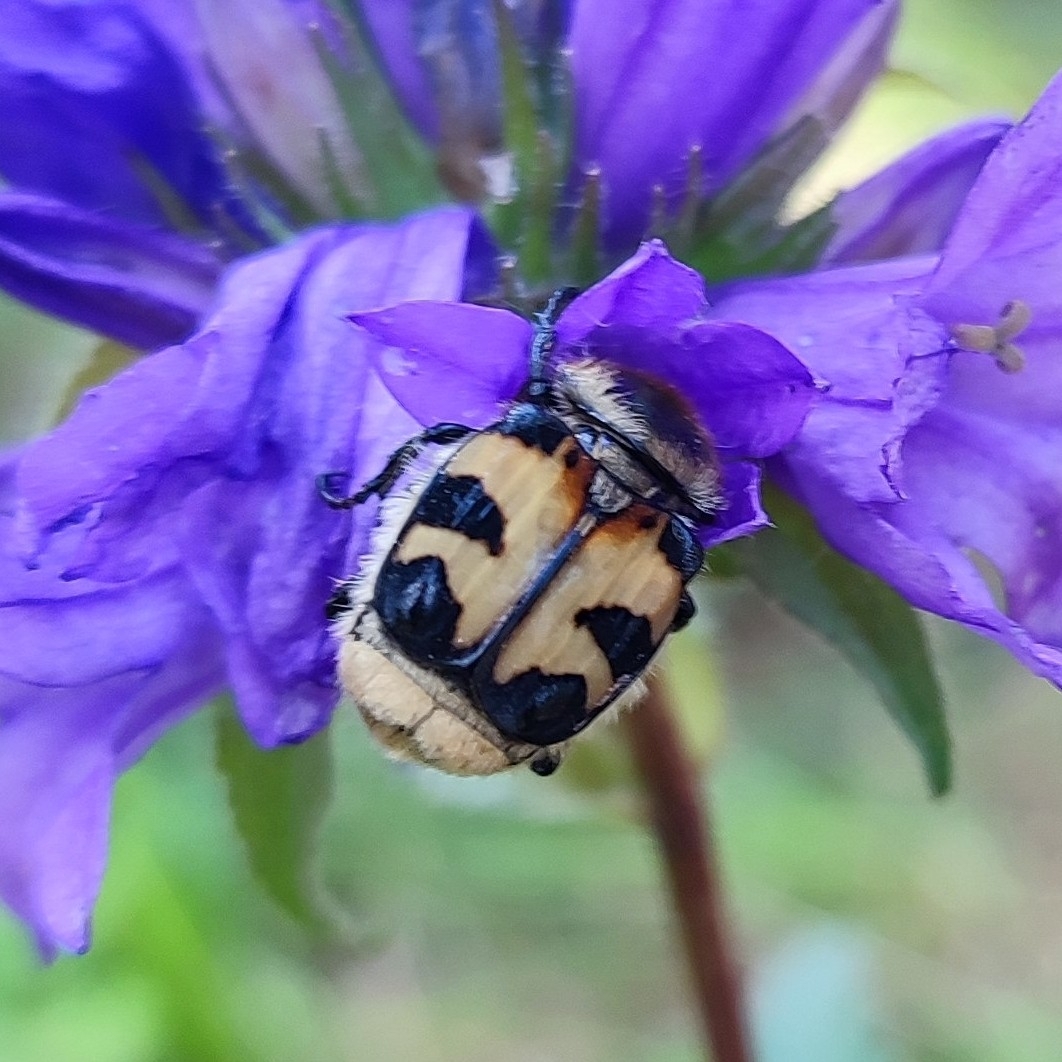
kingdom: Animalia
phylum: Arthropoda
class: Insecta
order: Coleoptera
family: Scarabaeidae
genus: Trichius
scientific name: Trichius fasciatus
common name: Bee beetle
